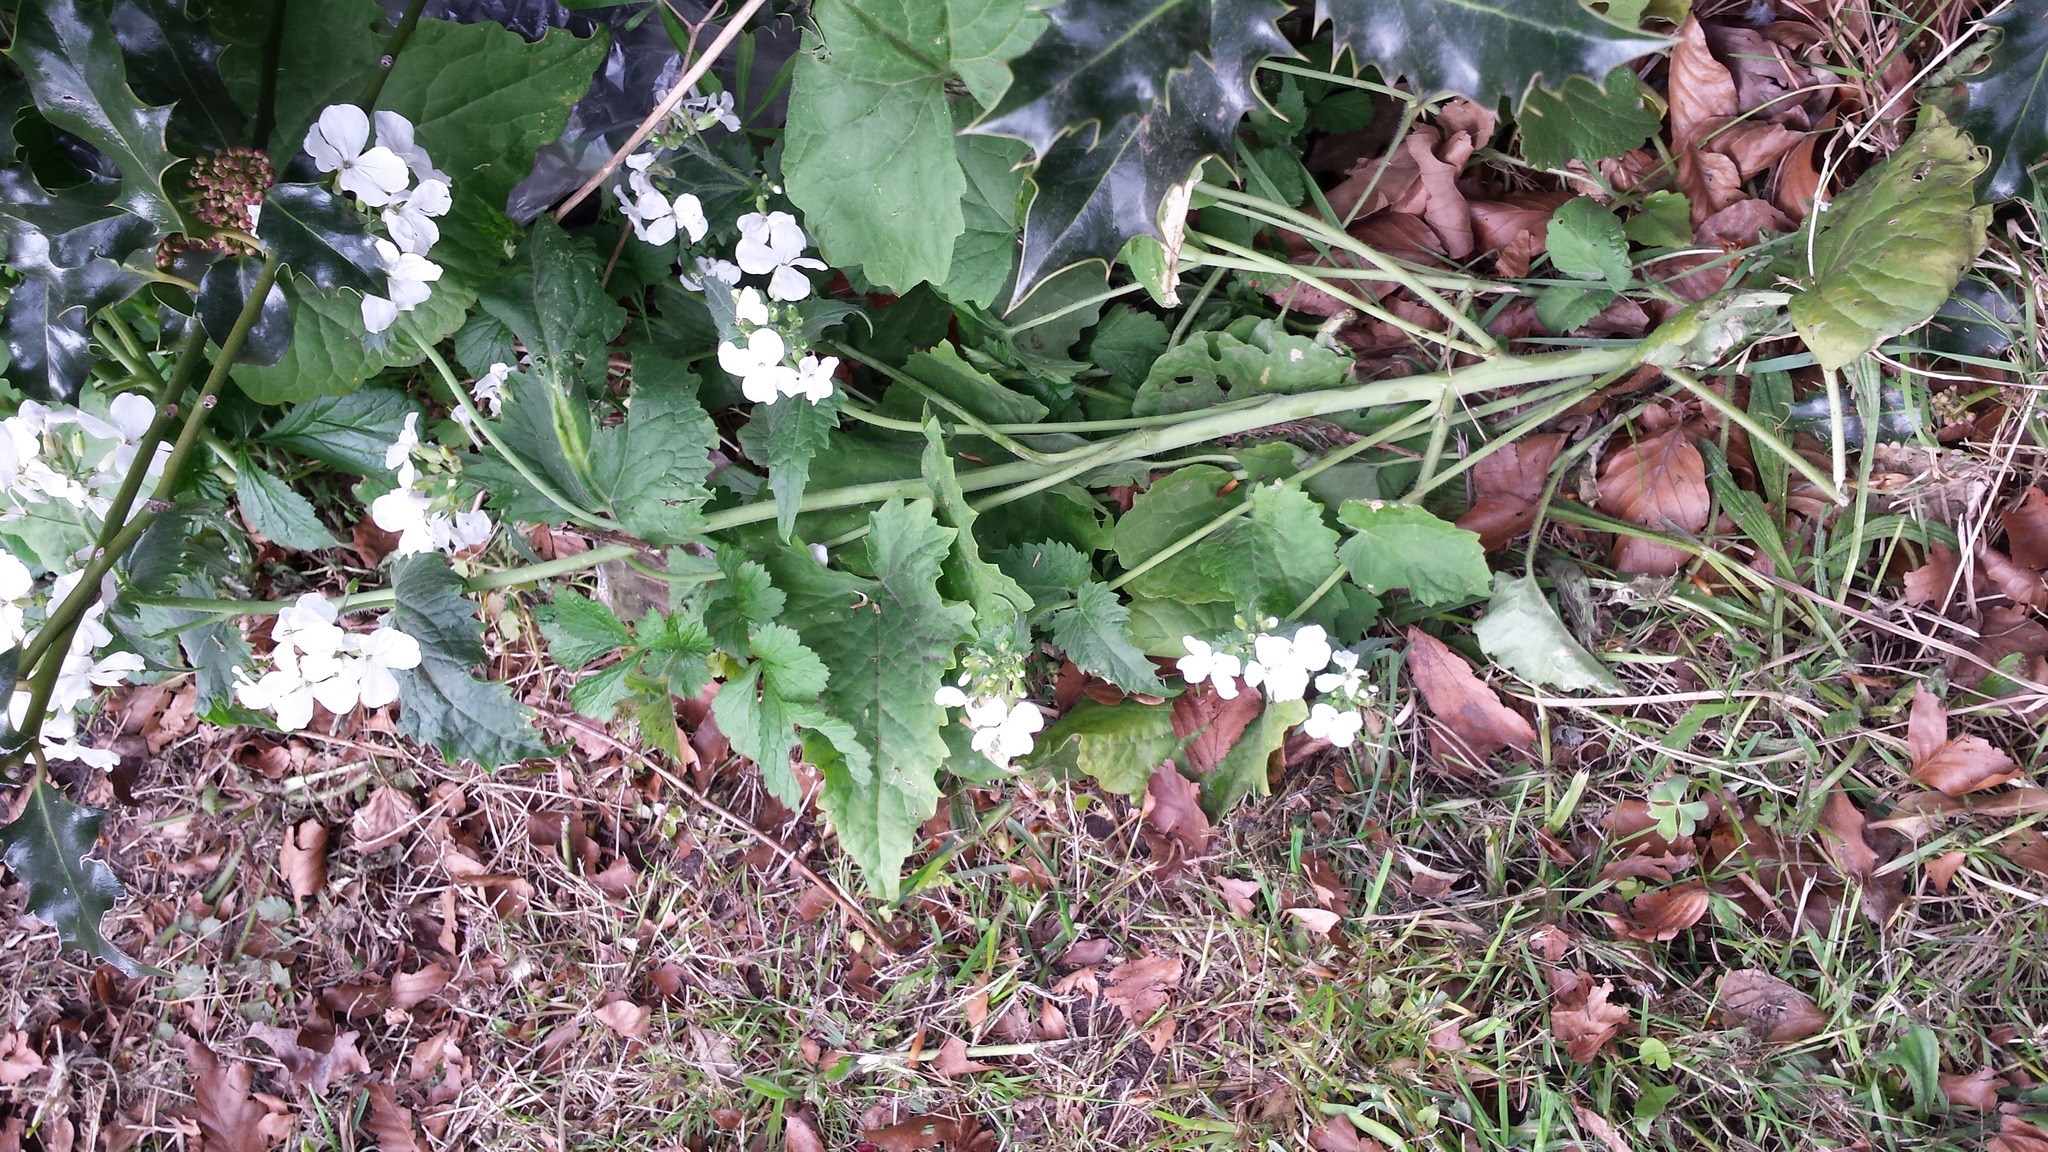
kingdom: Plantae
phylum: Tracheophyta
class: Magnoliopsida
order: Brassicales
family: Brassicaceae
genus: Lunaria
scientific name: Lunaria annua
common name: Honesty
